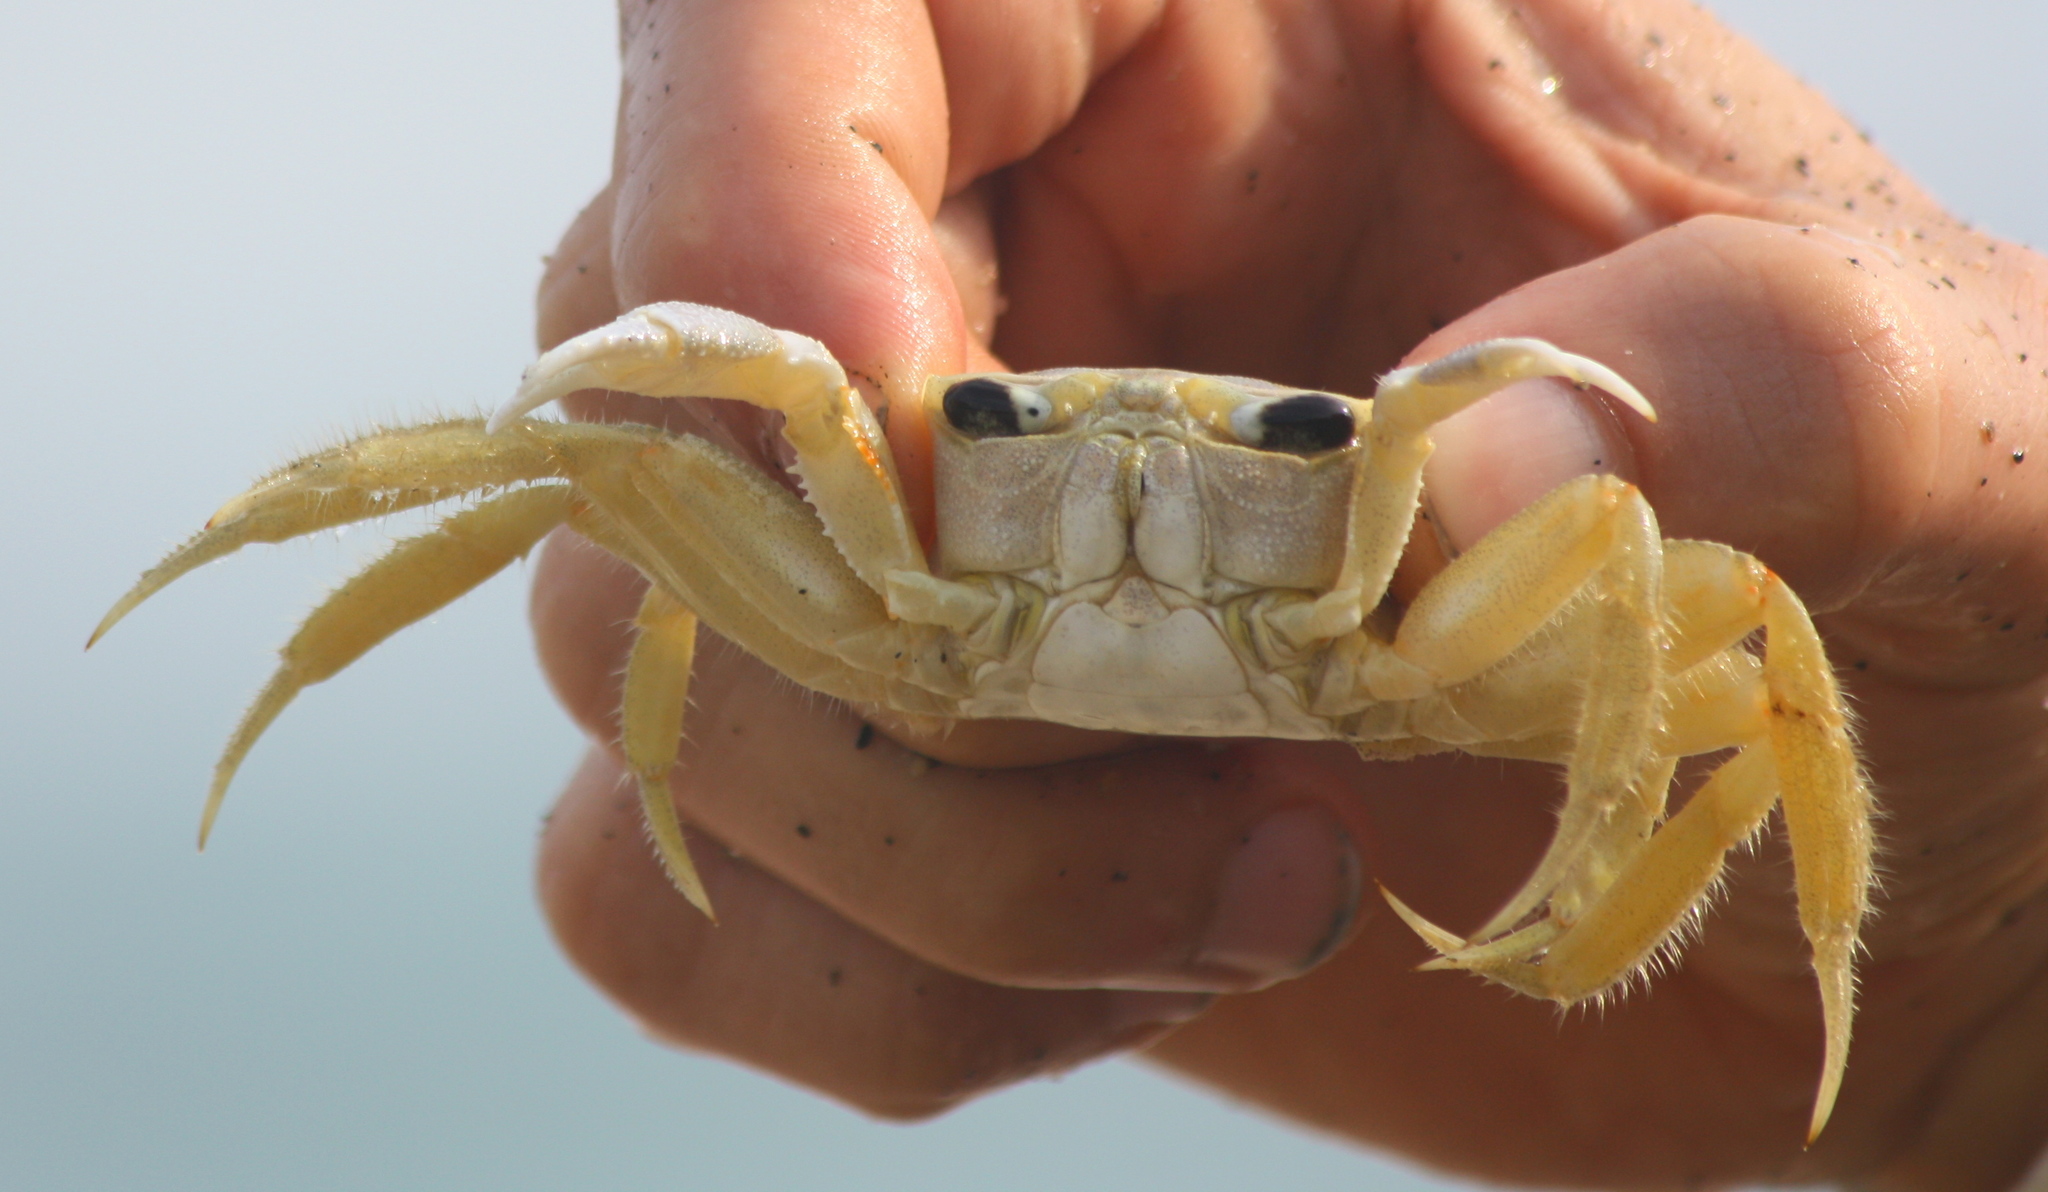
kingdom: Animalia
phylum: Arthropoda
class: Malacostraca
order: Decapoda
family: Ocypodidae
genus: Ocypode
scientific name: Ocypode quadrata
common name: Ghost crab
